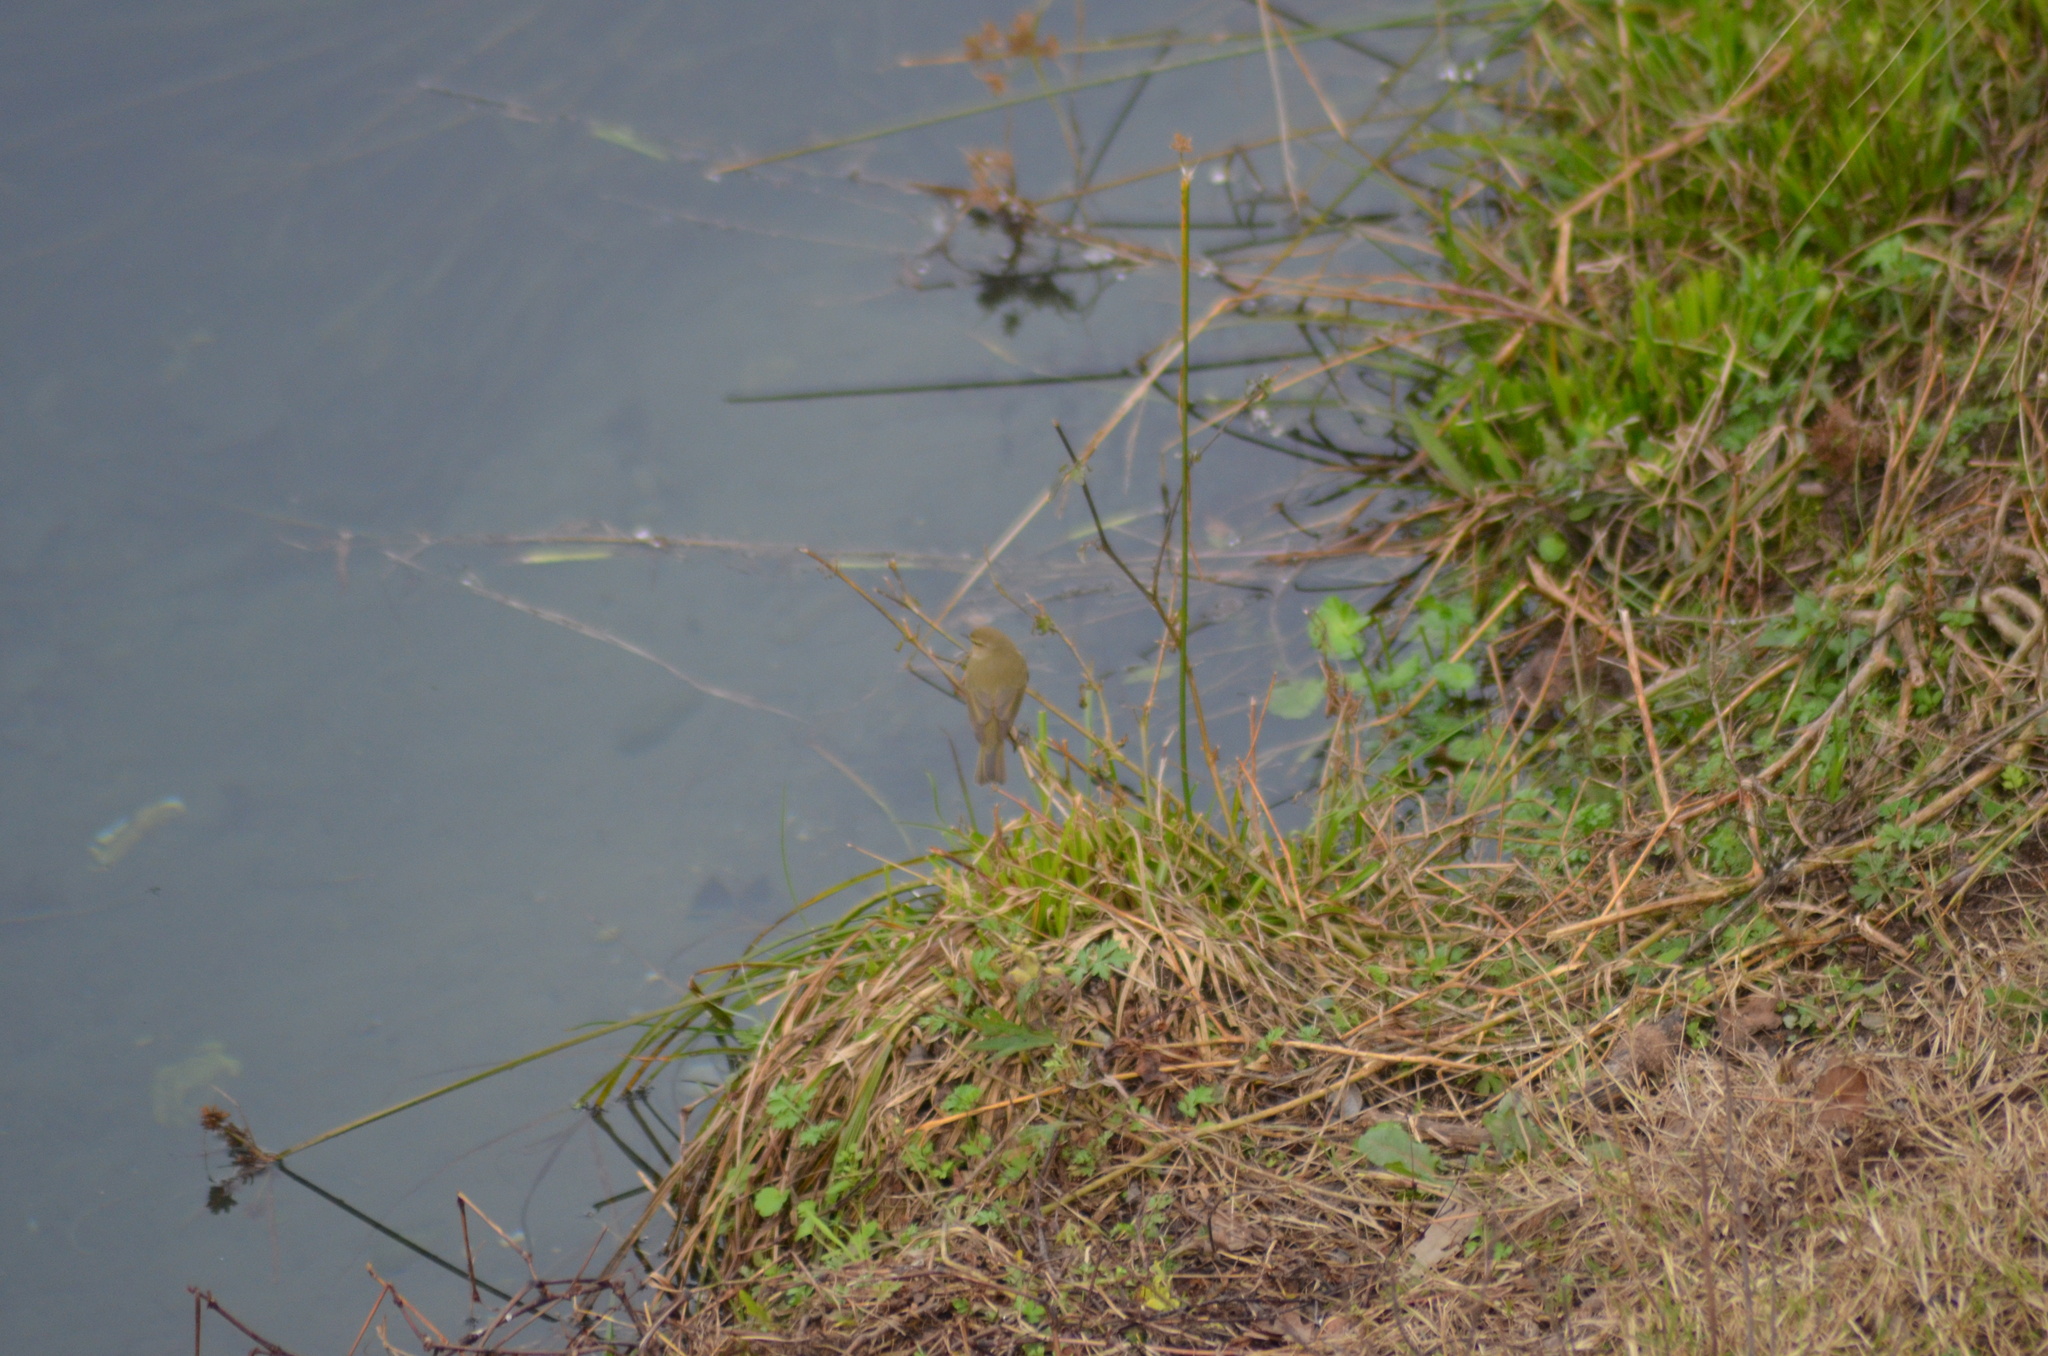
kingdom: Animalia
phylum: Chordata
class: Aves
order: Passeriformes
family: Phylloscopidae
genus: Phylloscopus
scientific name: Phylloscopus collybita
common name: Common chiffchaff
